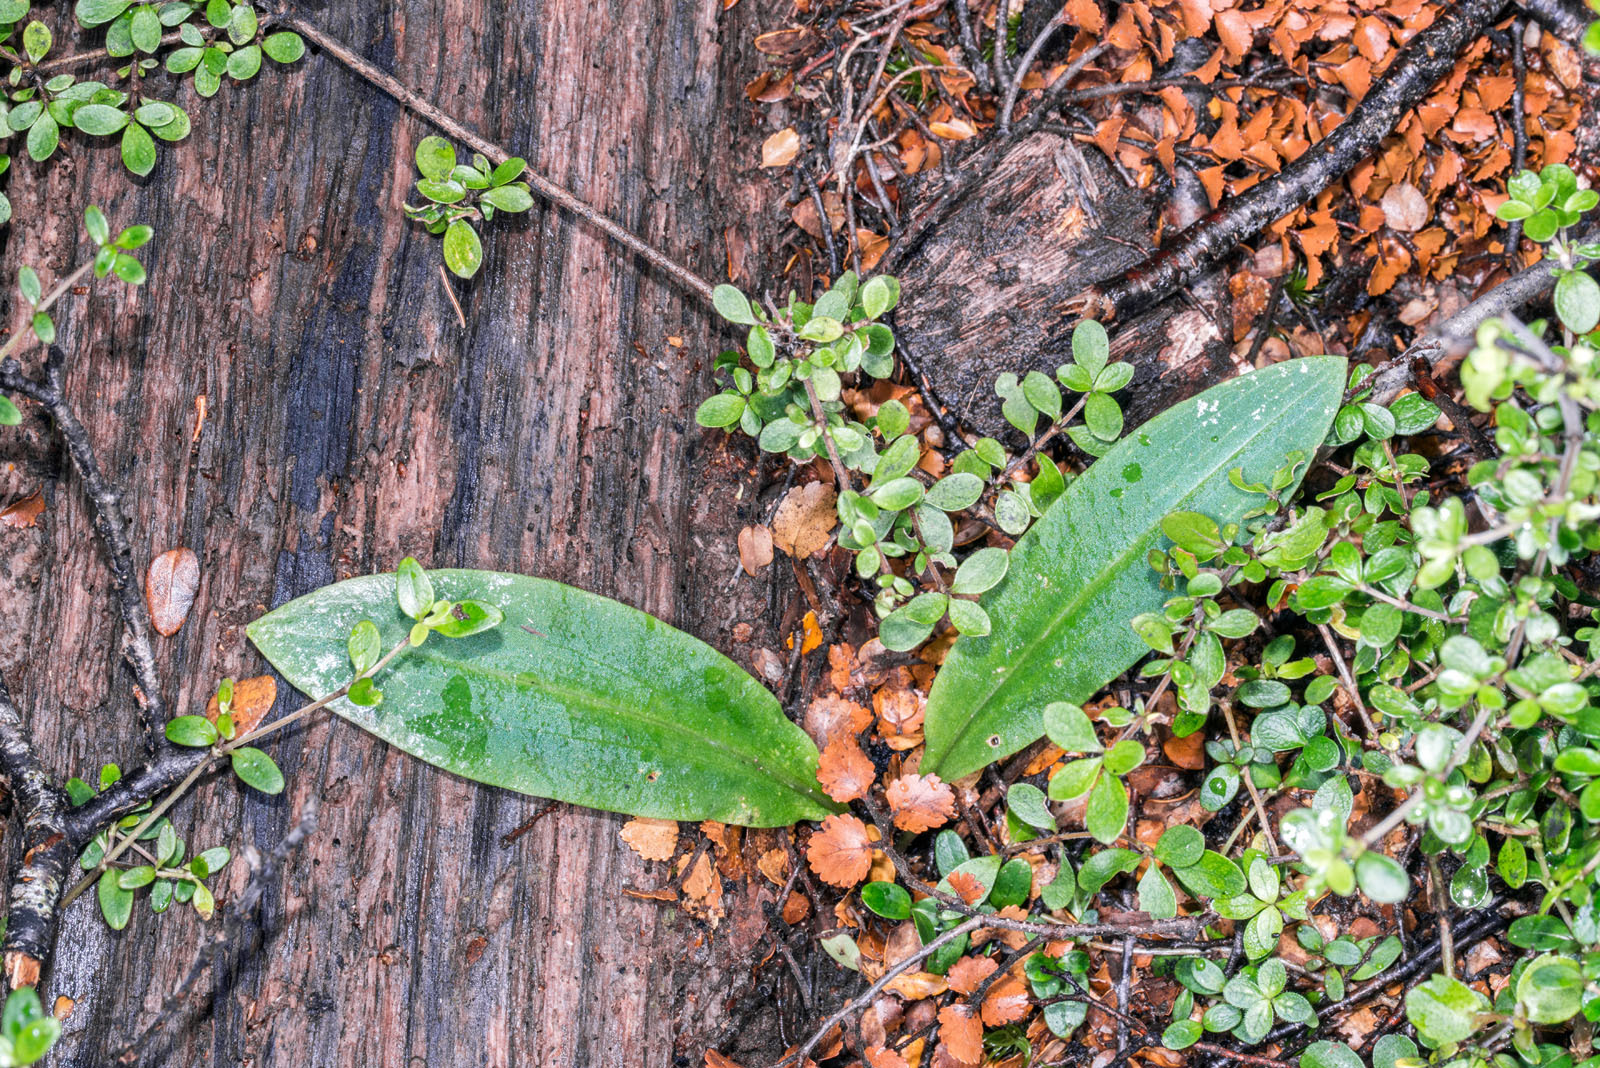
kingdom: Plantae
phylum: Tracheophyta
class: Liliopsida
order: Asparagales
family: Orchidaceae
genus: Chiloglottis
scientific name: Chiloglottis cornuta
